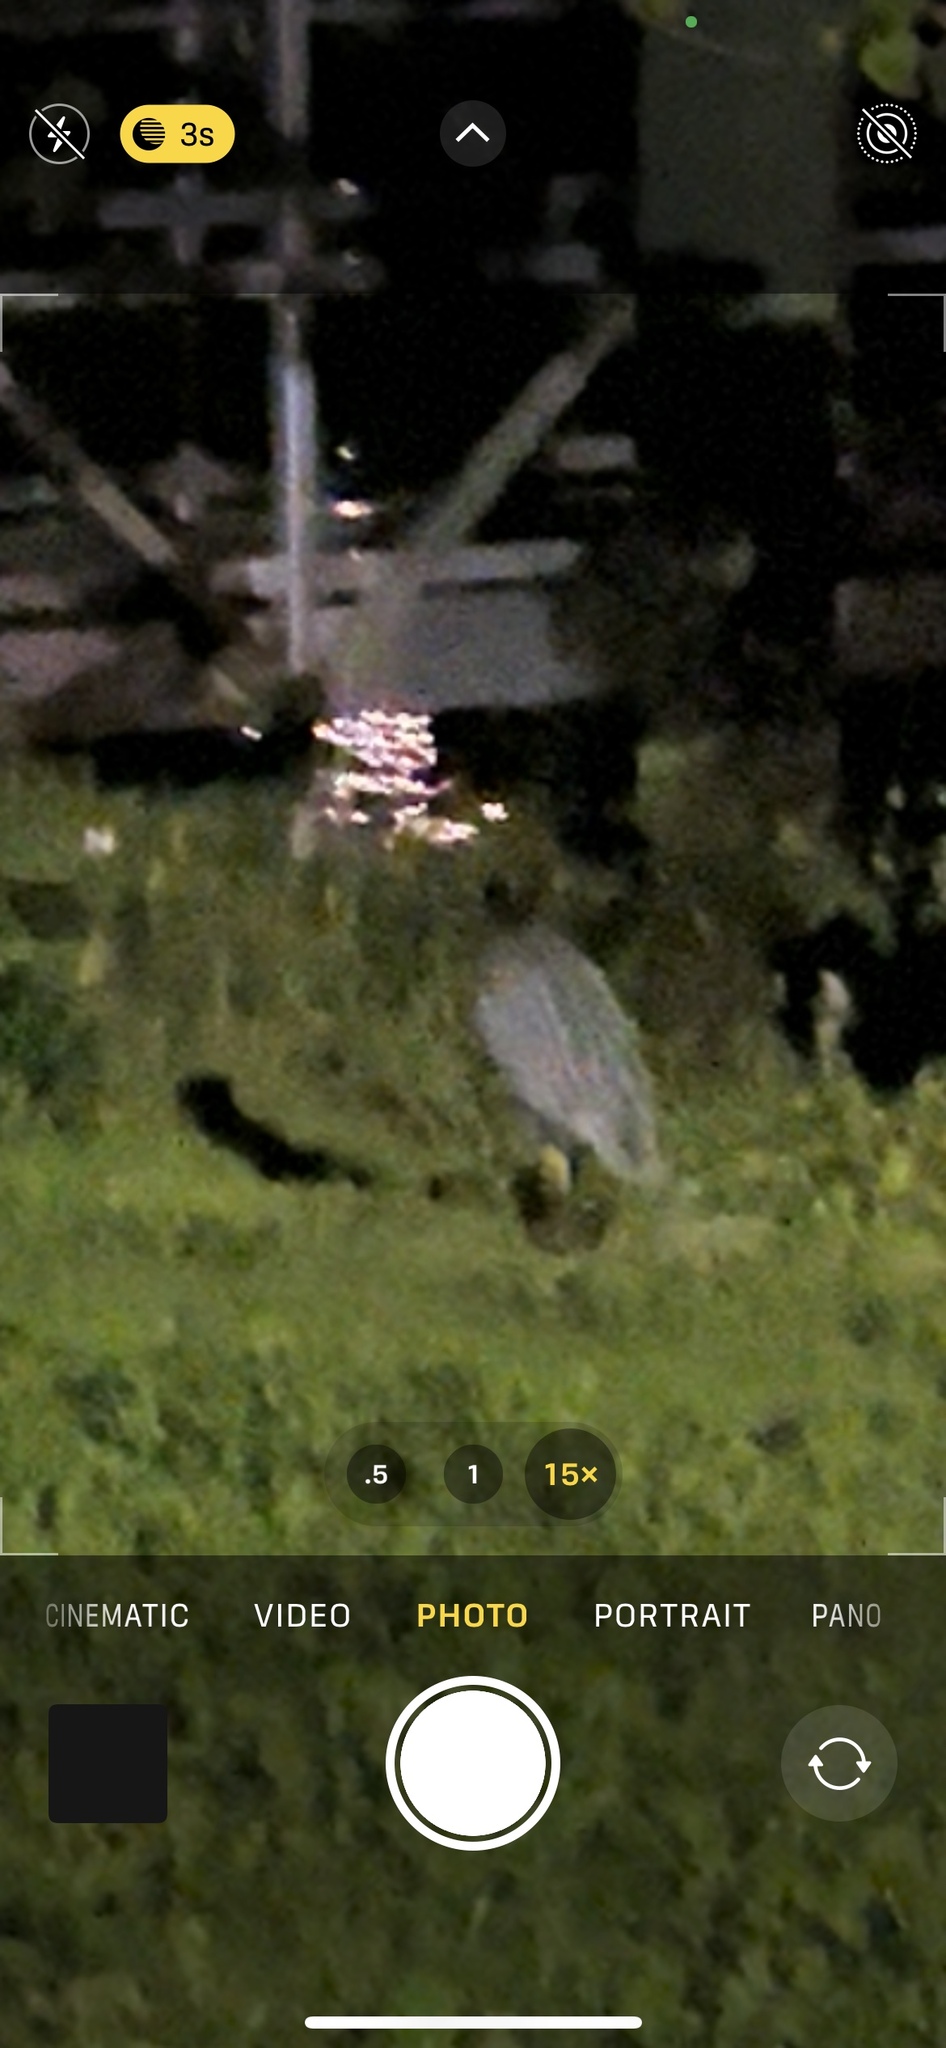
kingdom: Animalia
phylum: Chordata
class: Aves
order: Pelecaniformes
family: Ardeidae
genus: Nyctanassa
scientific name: Nyctanassa violacea
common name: Yellow-crowned night heron
